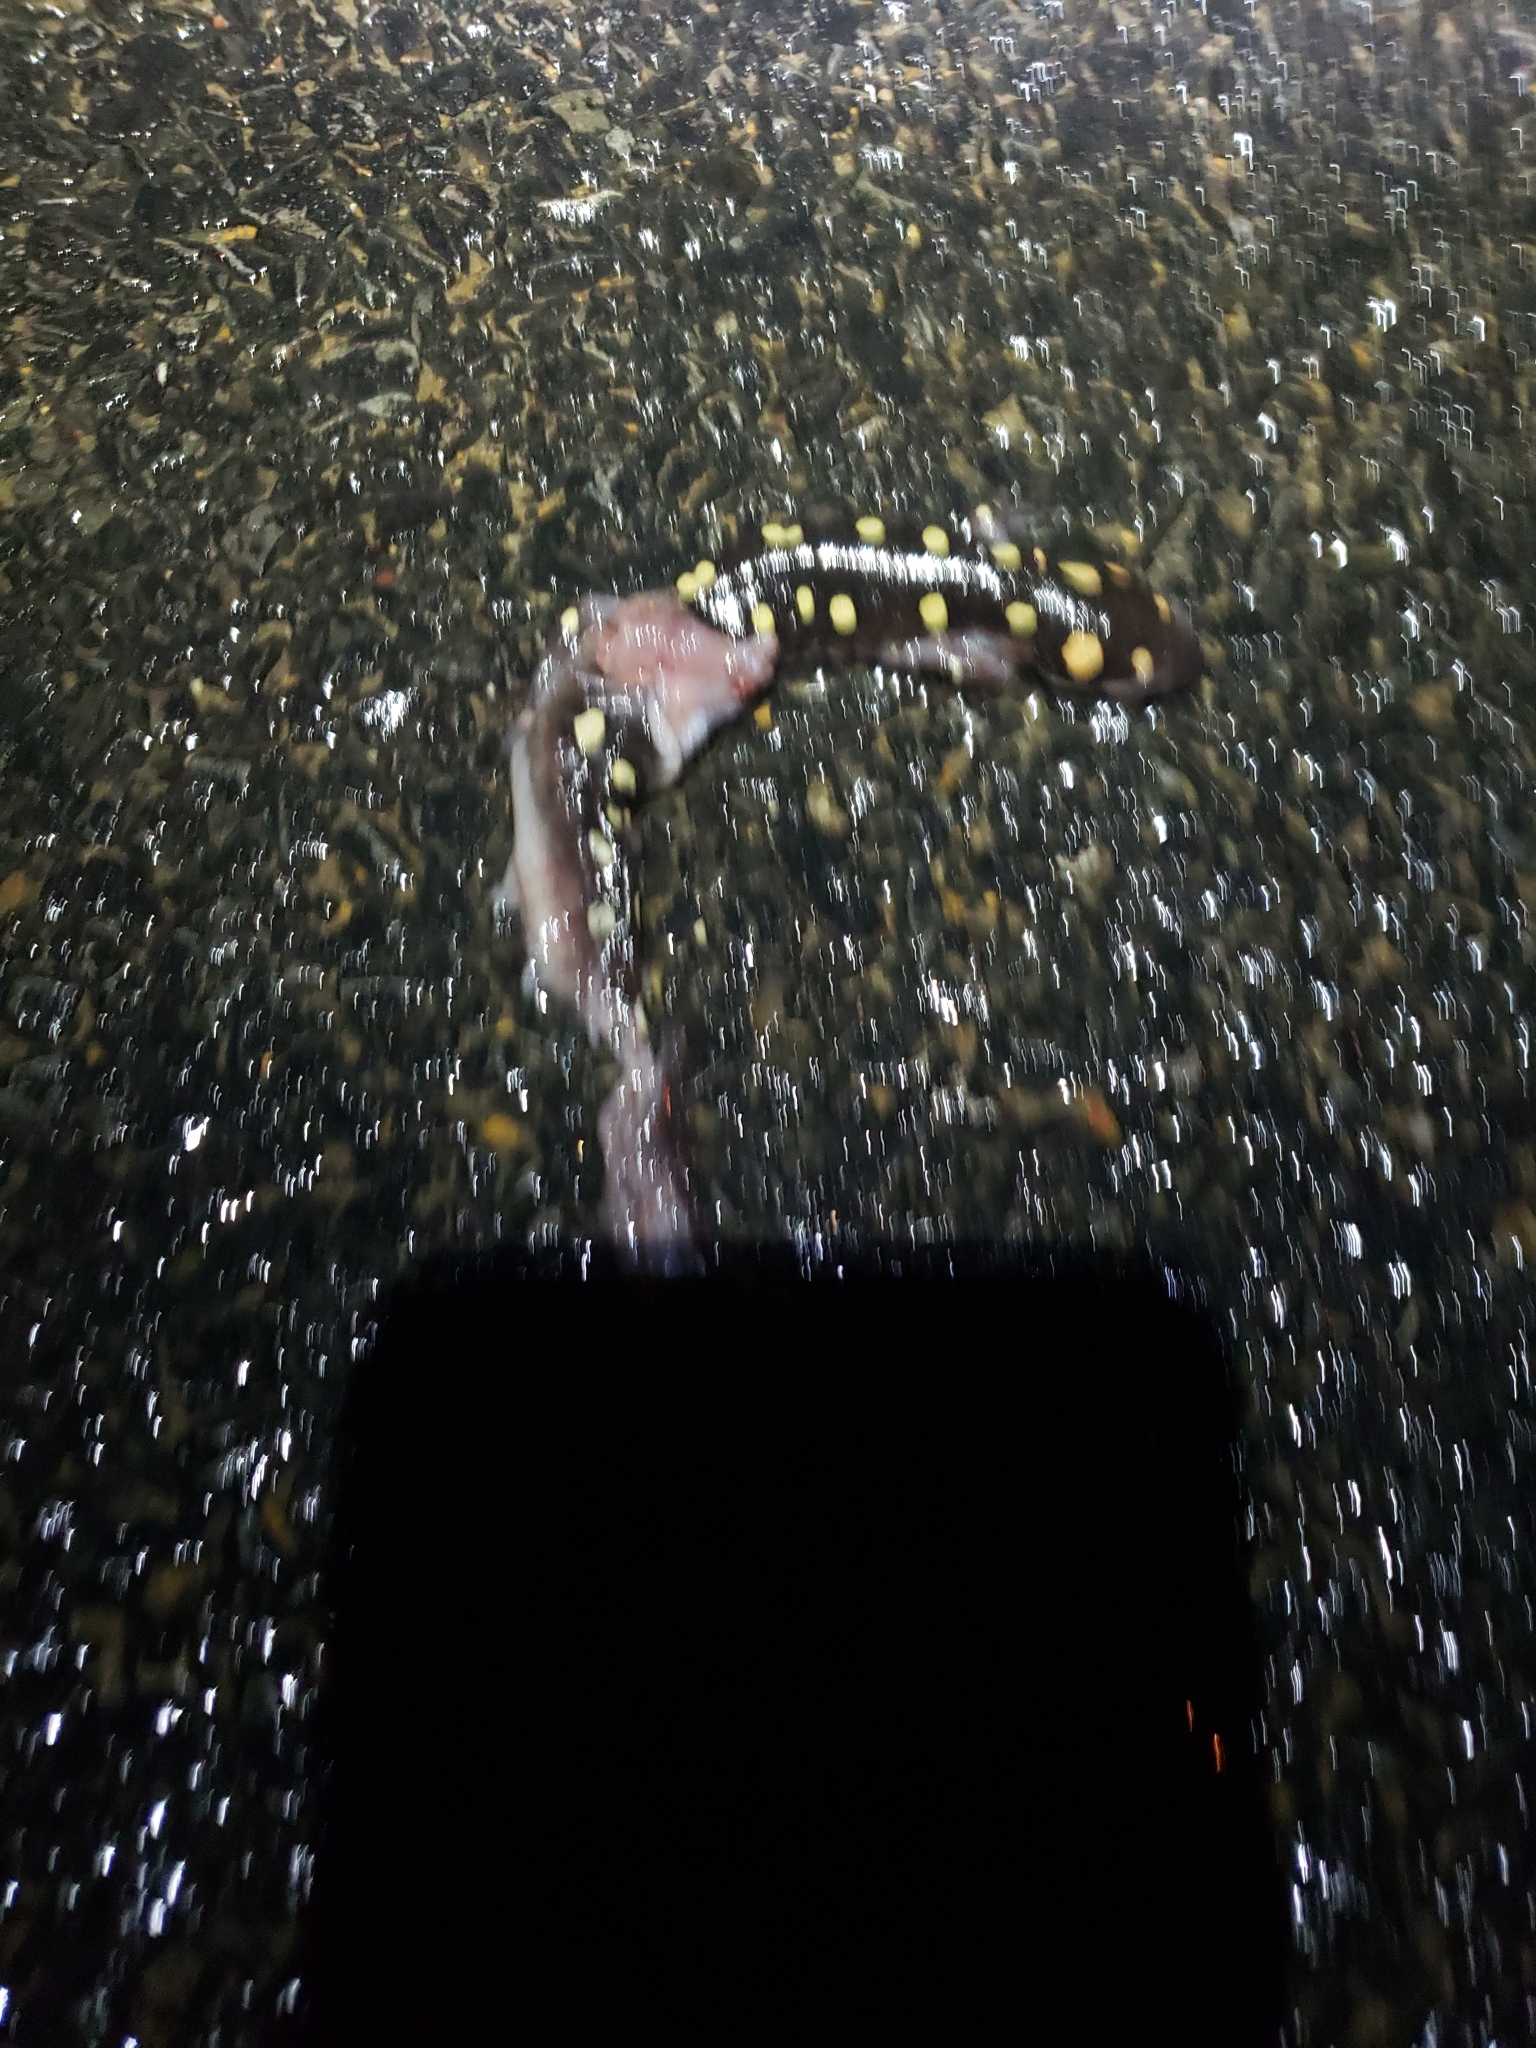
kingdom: Animalia
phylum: Chordata
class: Amphibia
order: Caudata
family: Ambystomatidae
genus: Ambystoma
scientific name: Ambystoma maculatum
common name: Spotted salamander
